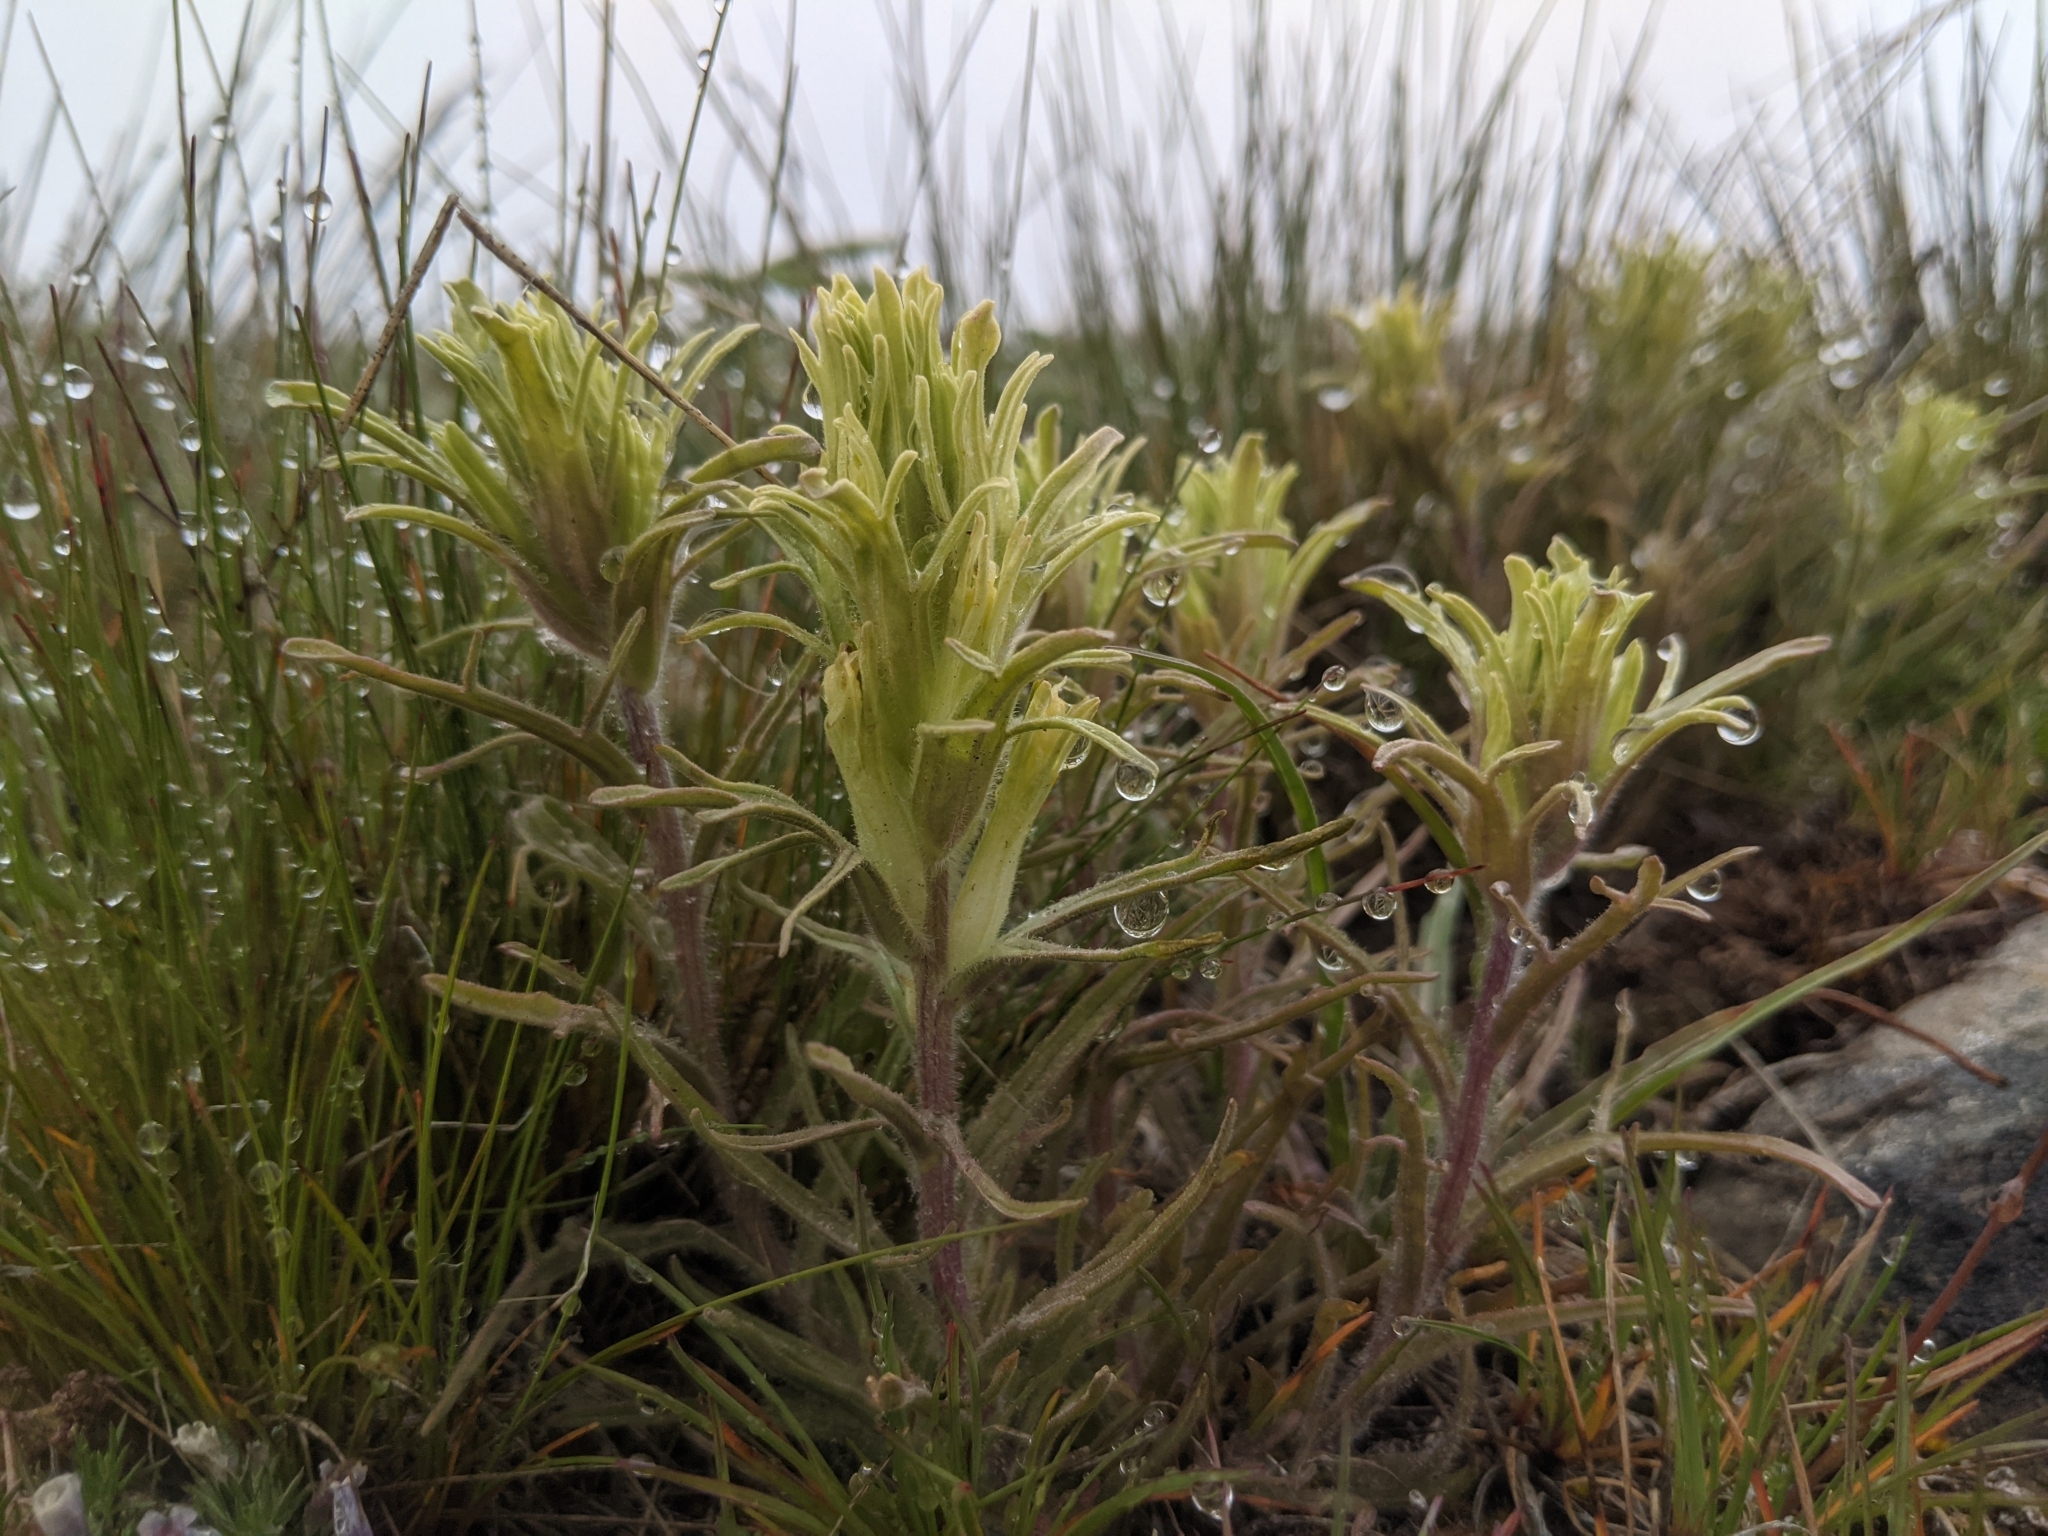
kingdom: Plantae
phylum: Tracheophyta
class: Magnoliopsida
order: Lamiales
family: Orobanchaceae
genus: Castilleja
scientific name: Castilleja oresbia
